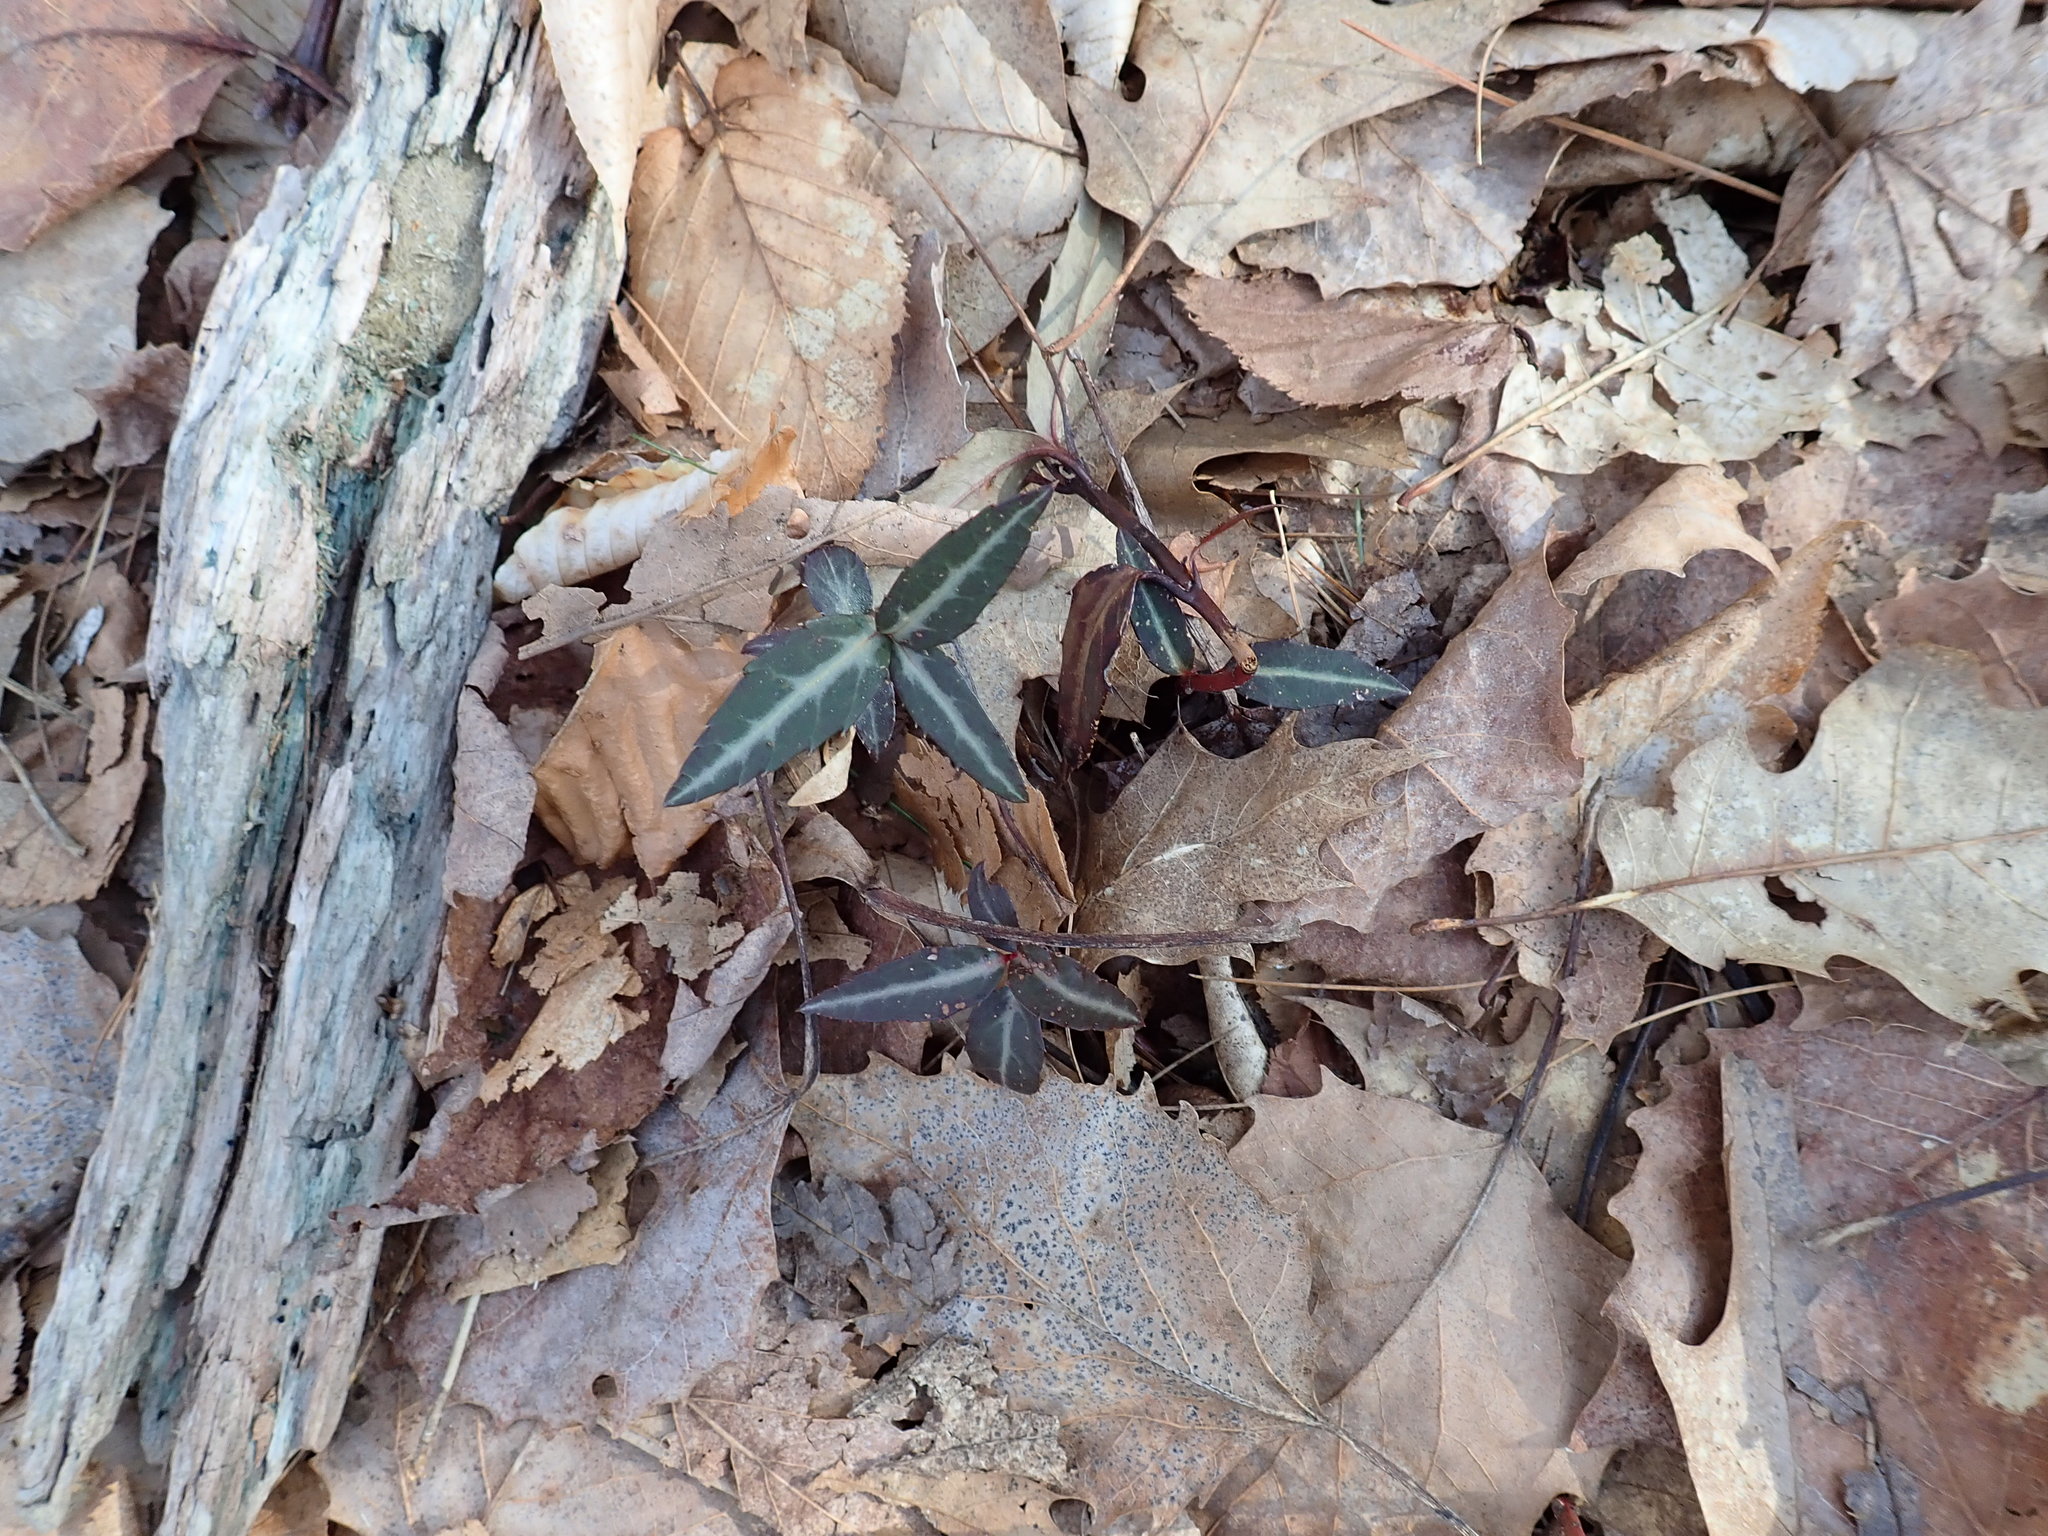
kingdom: Plantae
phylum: Tracheophyta
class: Magnoliopsida
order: Ericales
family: Ericaceae
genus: Chimaphila
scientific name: Chimaphila maculata
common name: Spotted pipsissewa
